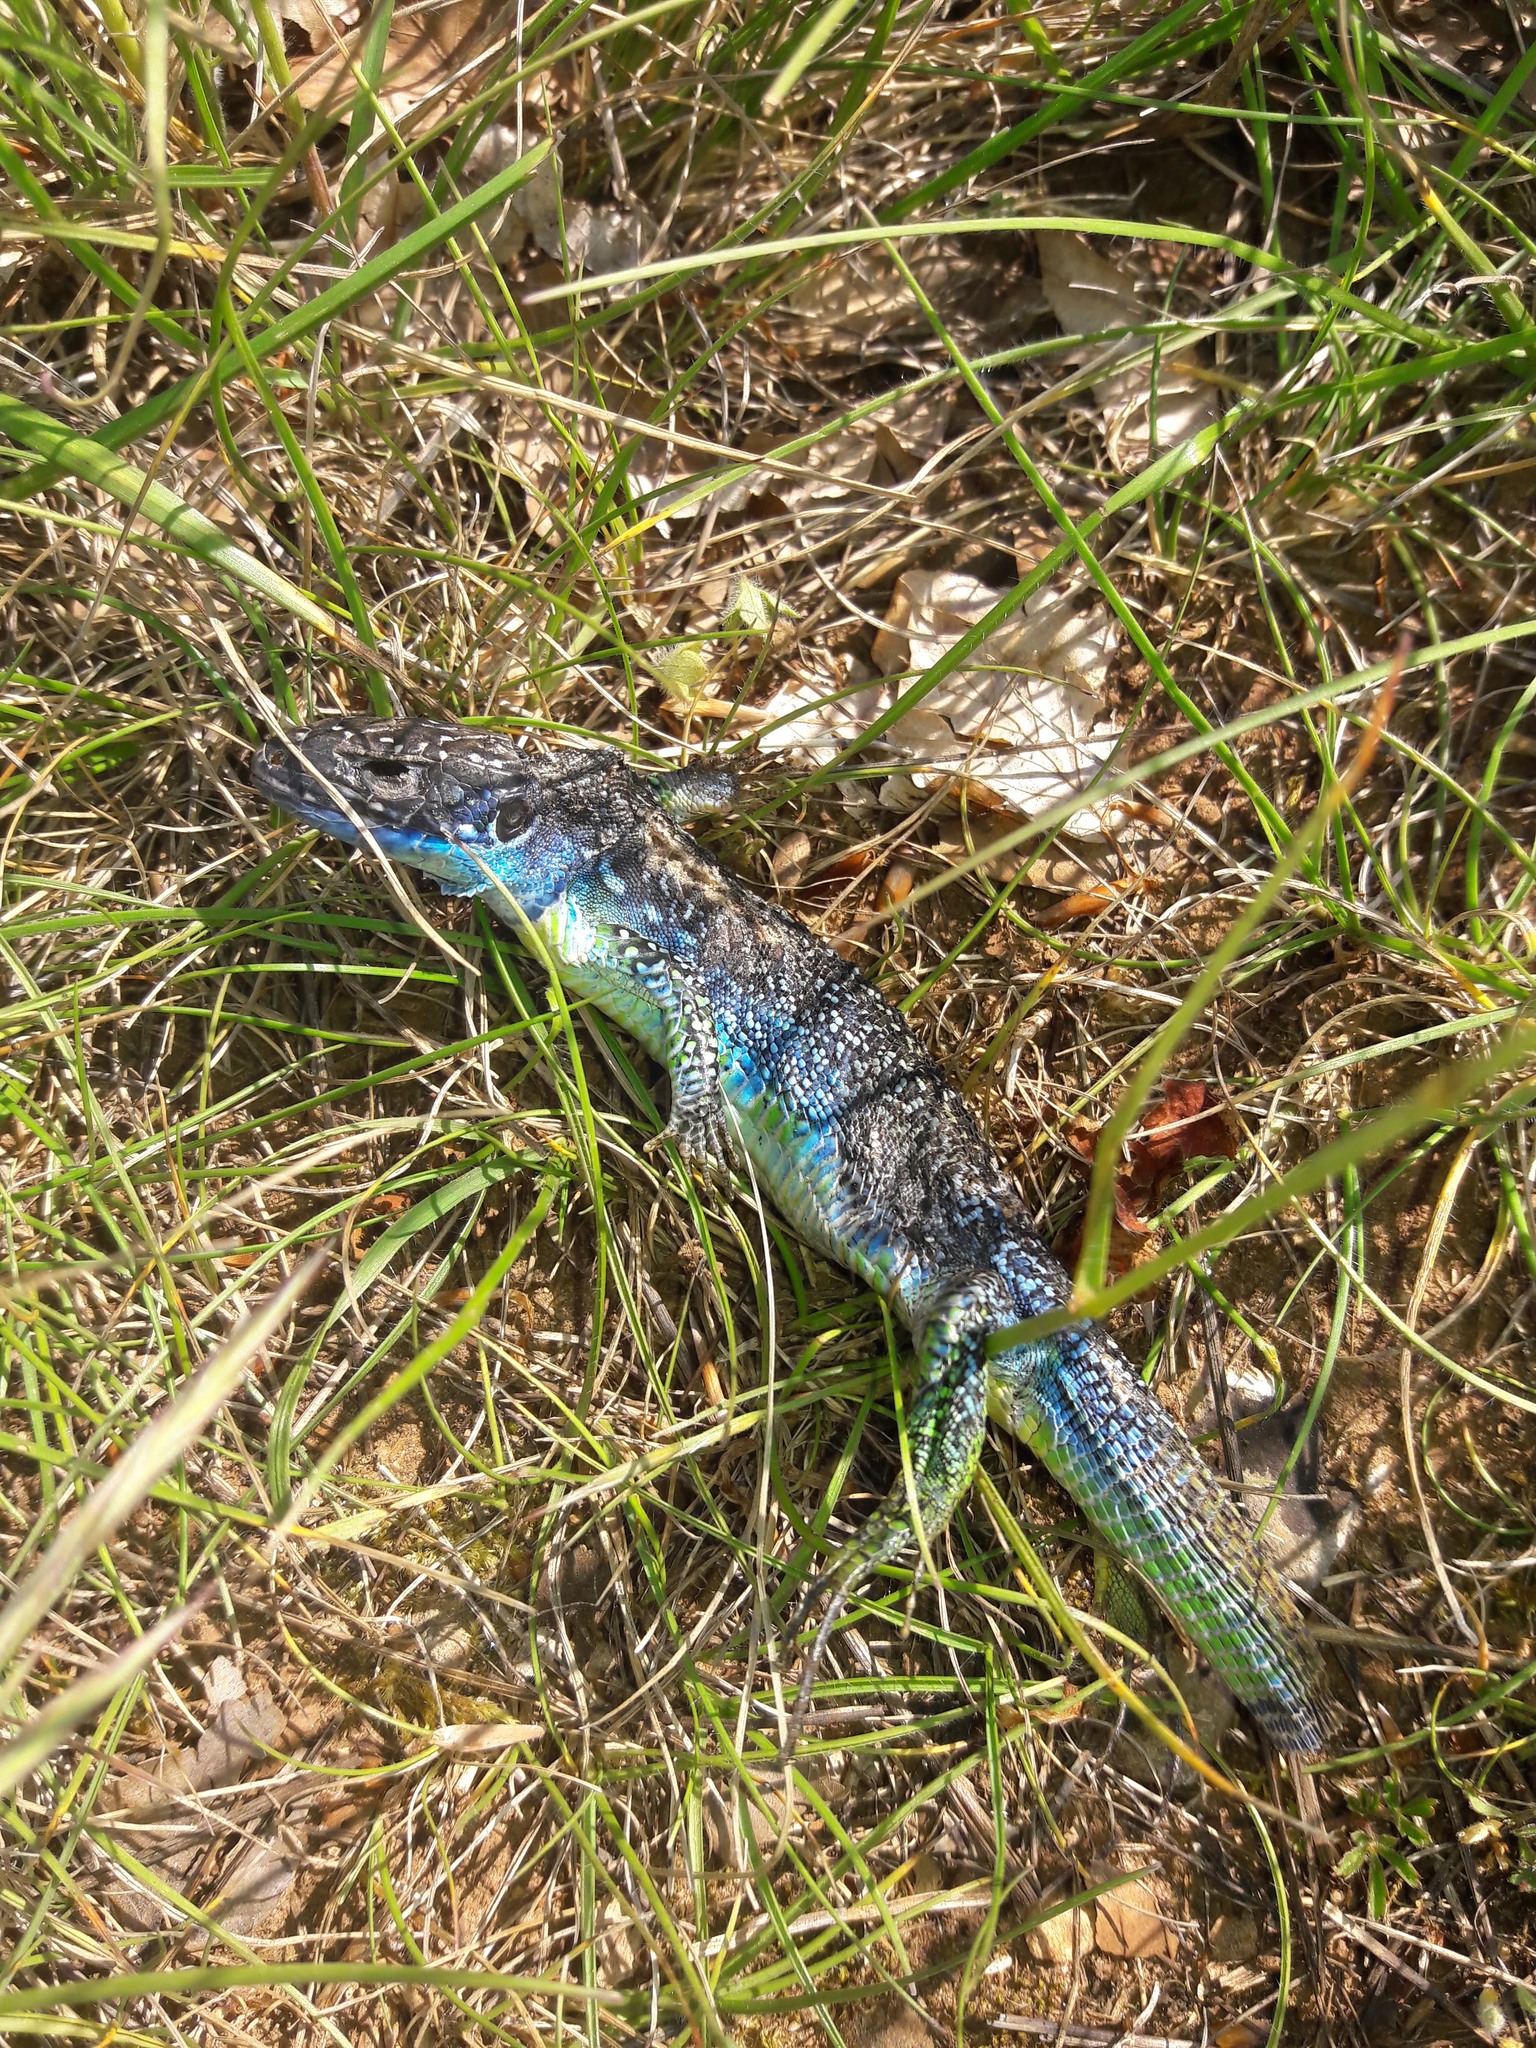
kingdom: Animalia
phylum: Chordata
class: Squamata
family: Lacertidae
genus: Lacerta
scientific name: Lacerta bilineata
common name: Western green lizard
